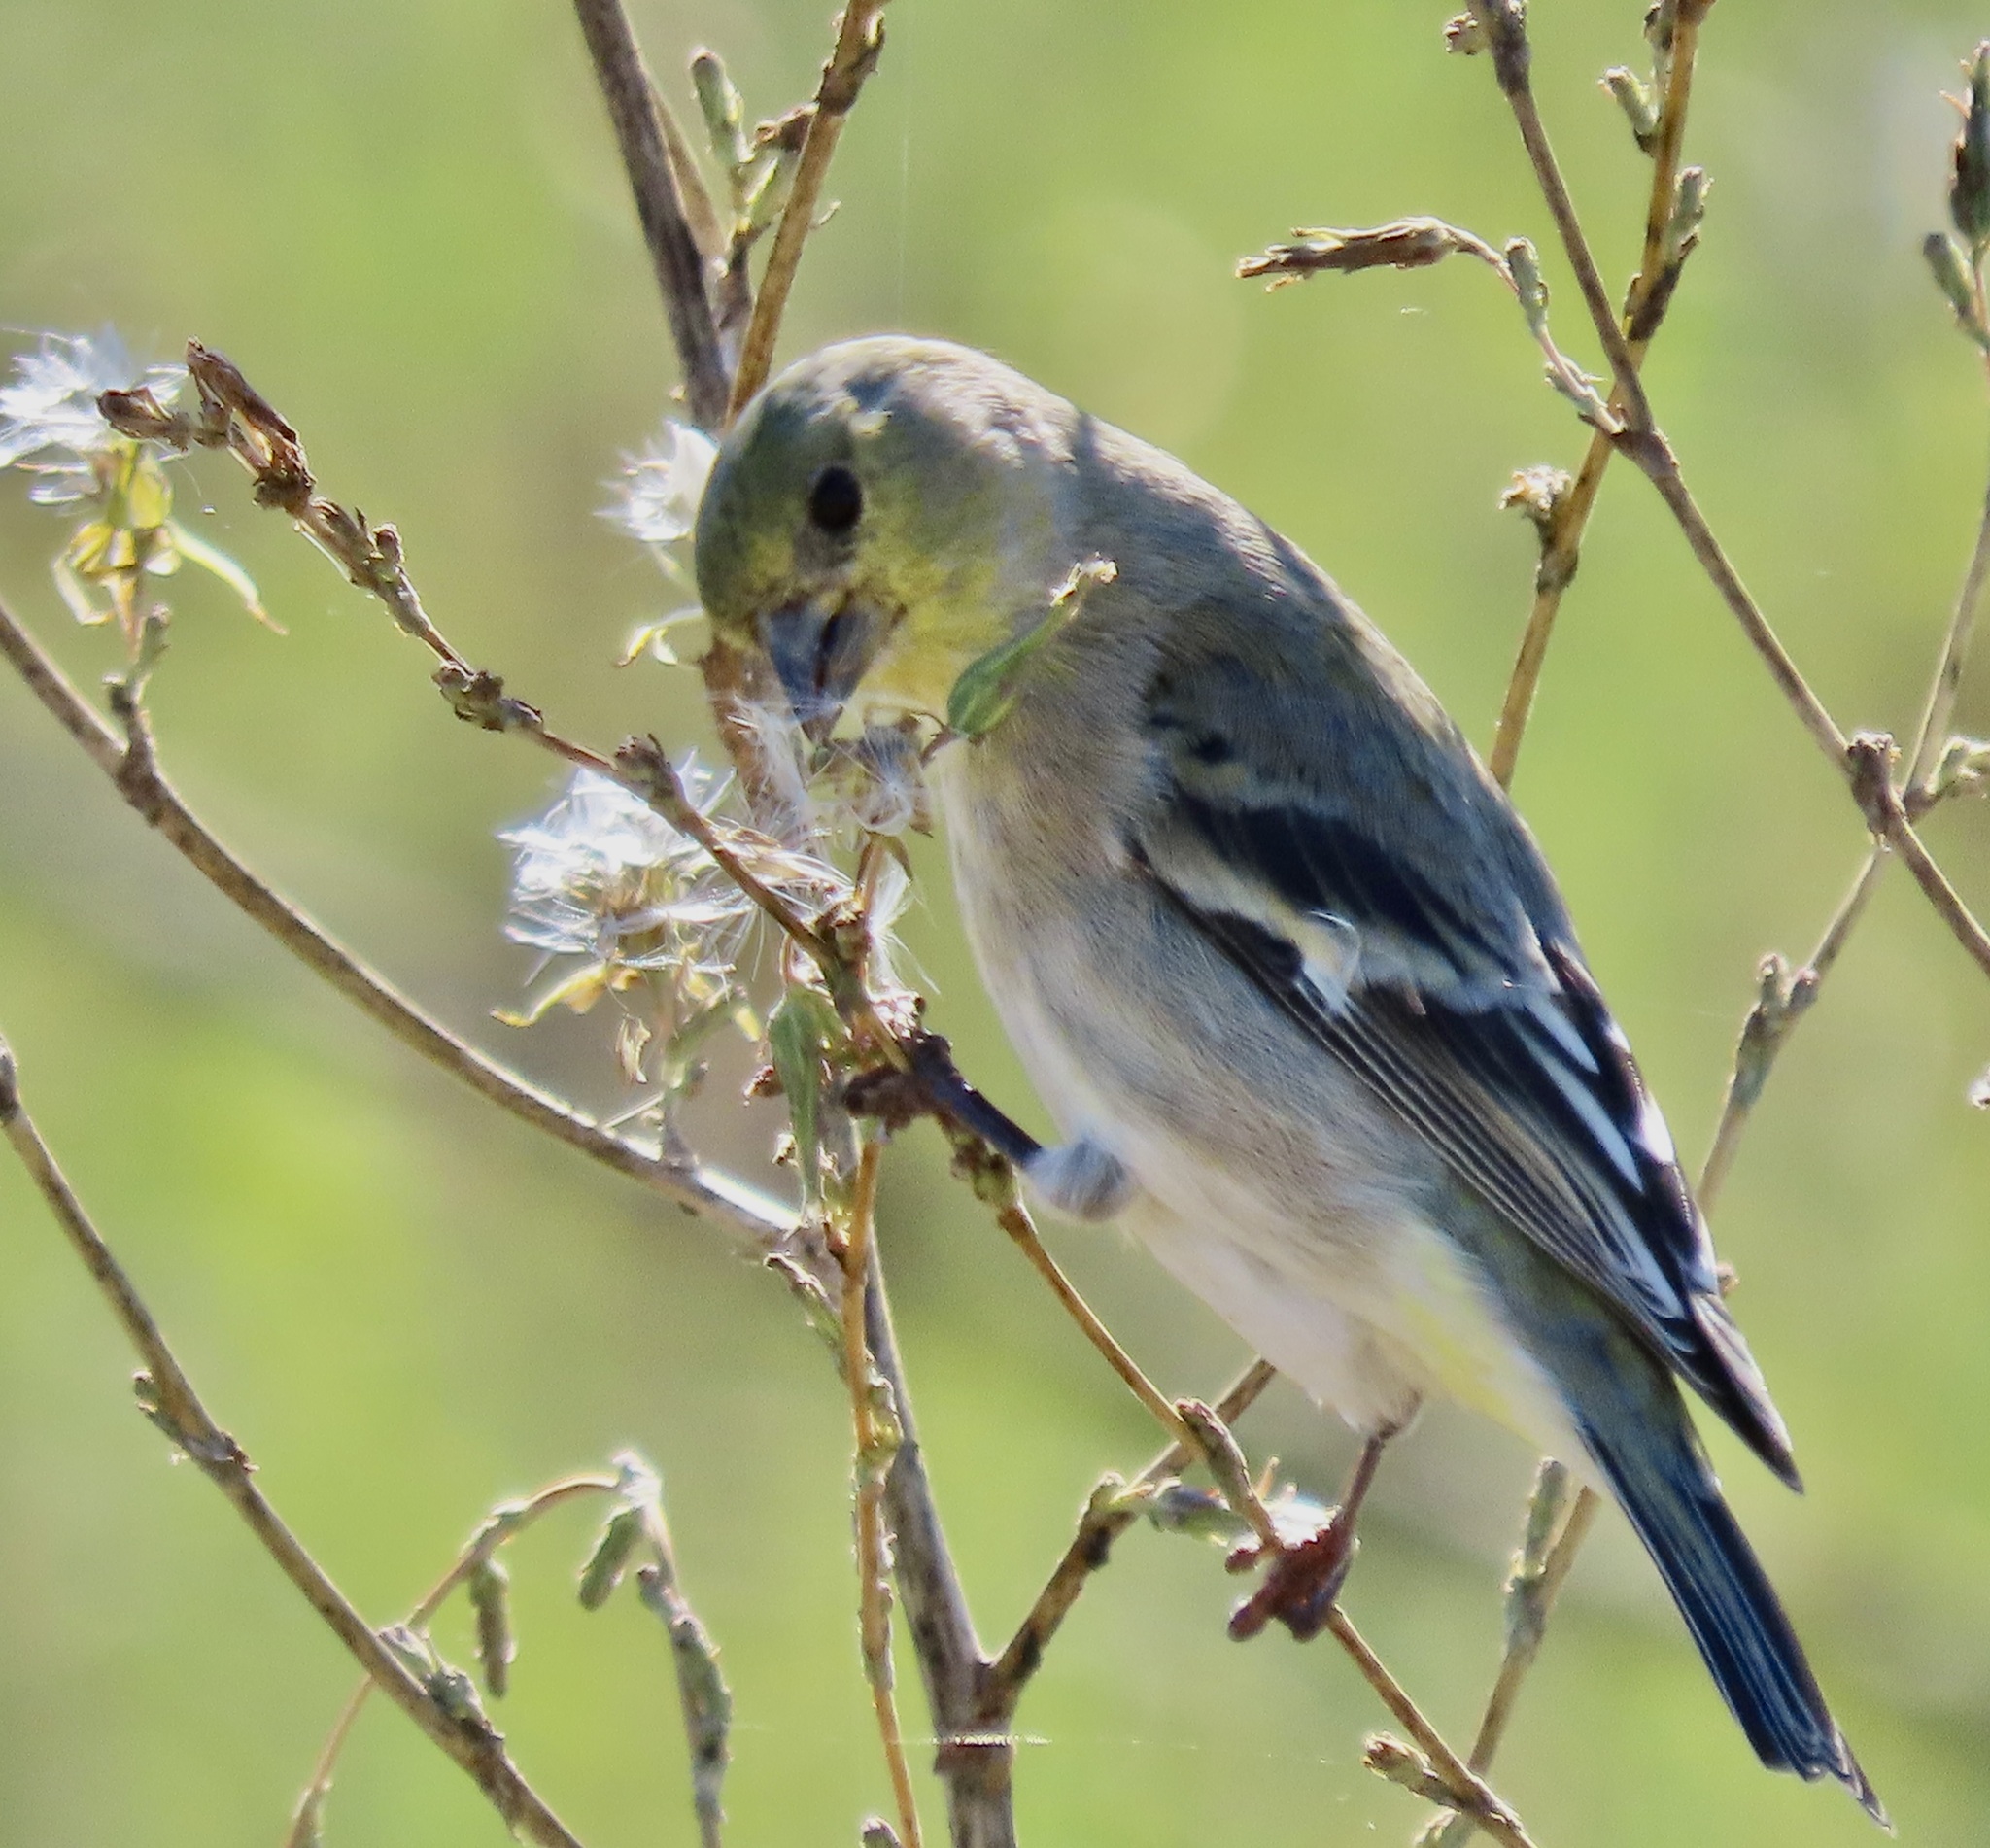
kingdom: Animalia
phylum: Chordata
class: Aves
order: Passeriformes
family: Fringillidae
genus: Spinus
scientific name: Spinus tristis
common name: American goldfinch
